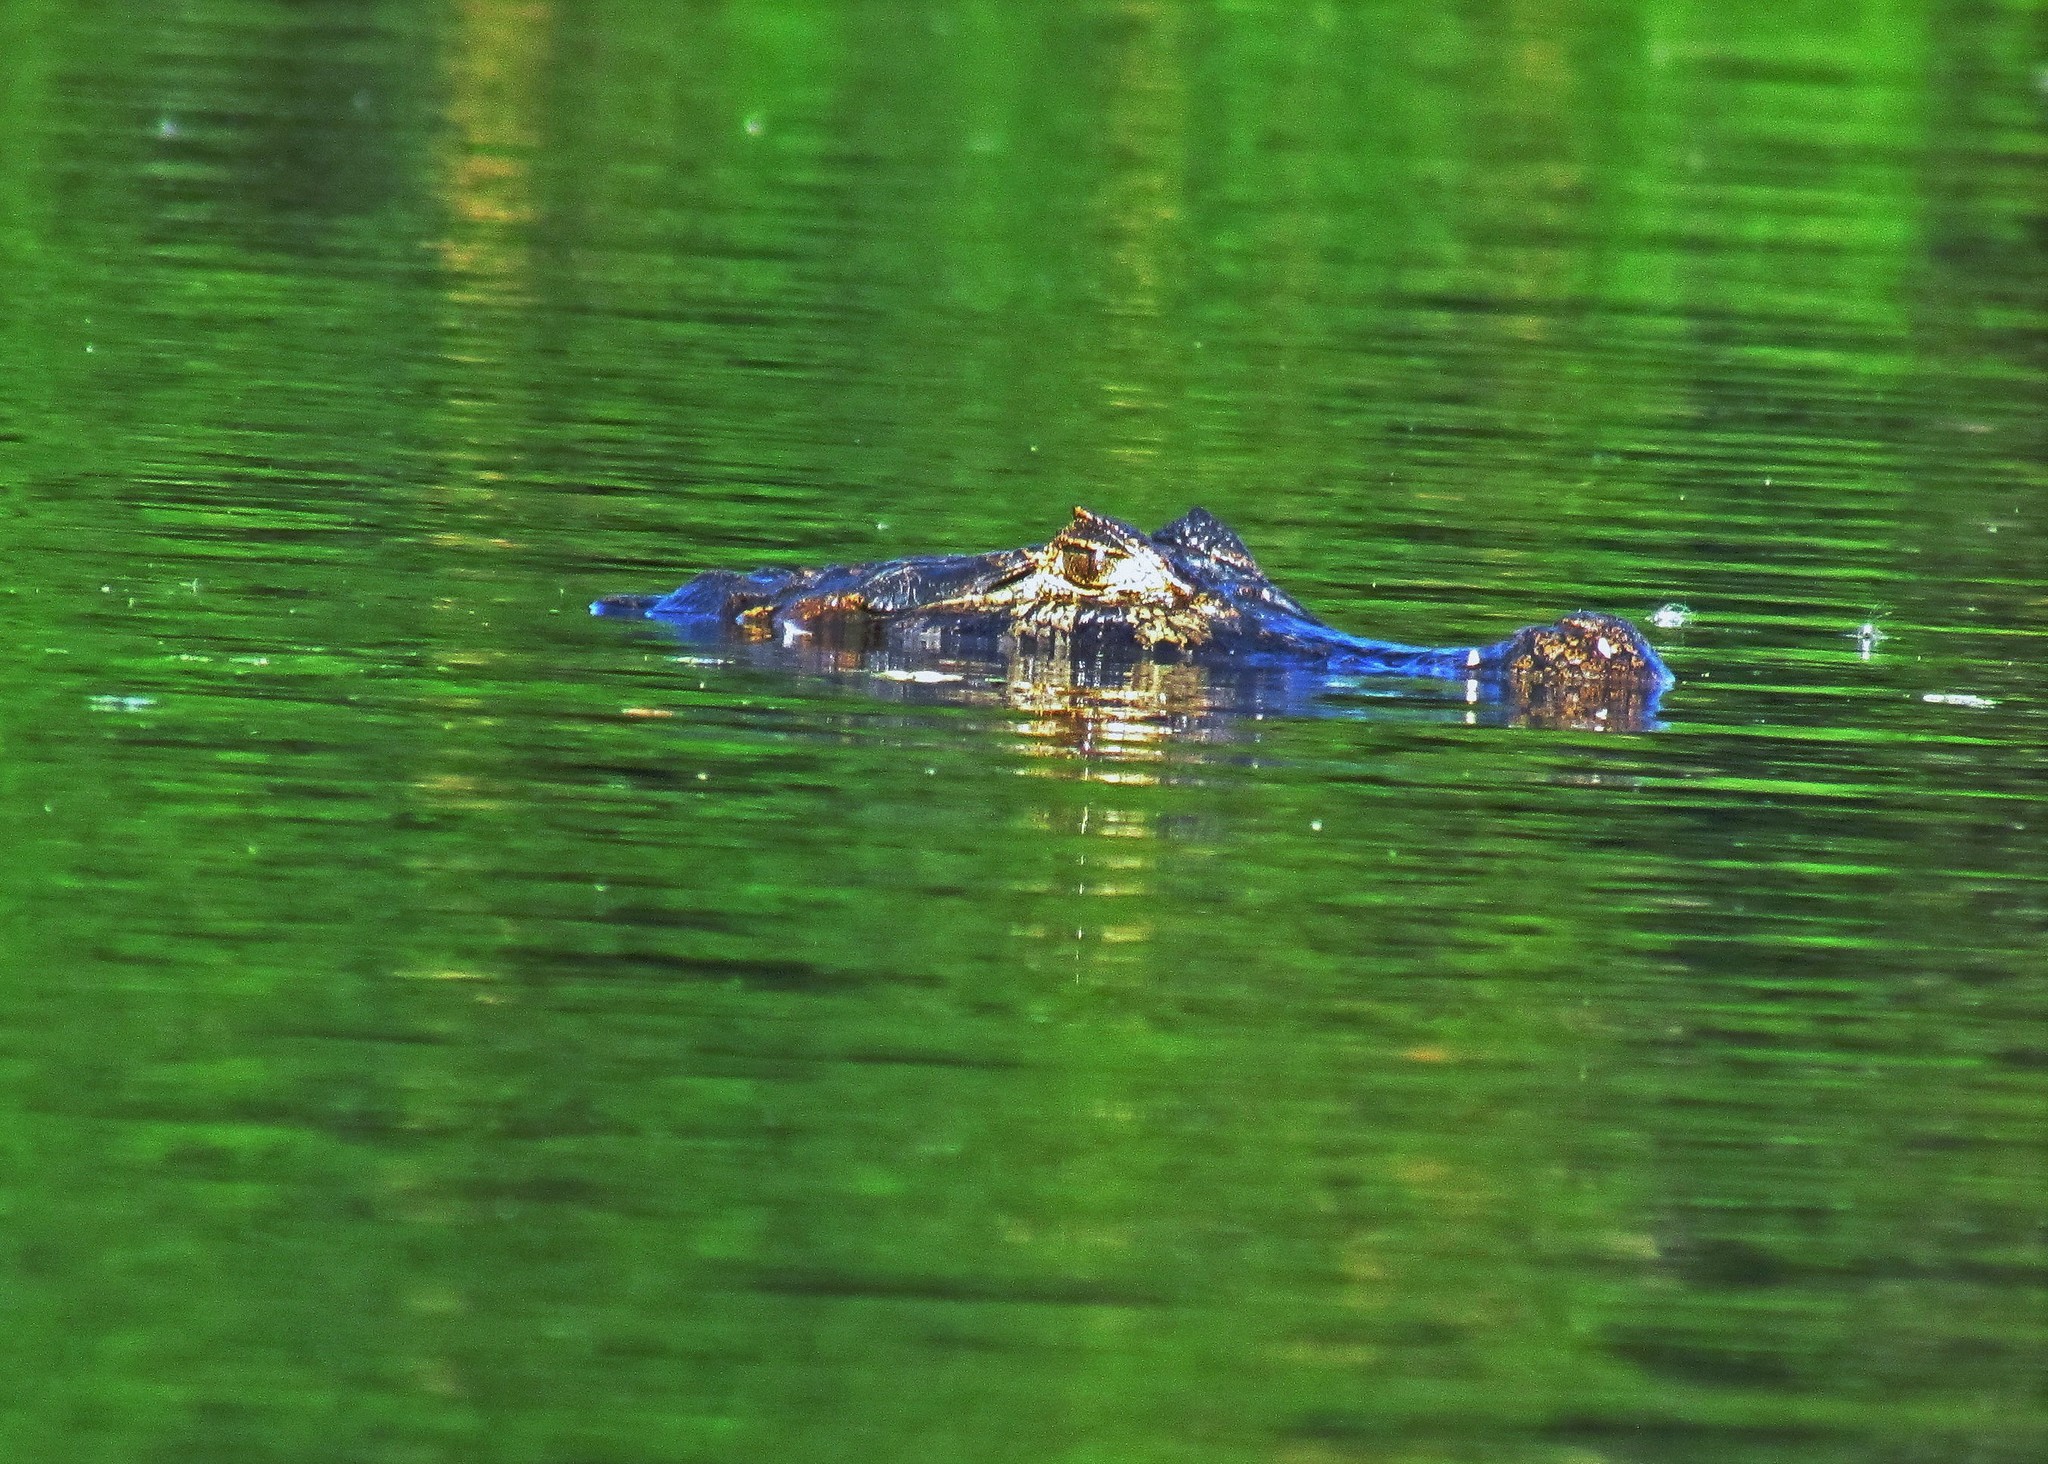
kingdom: Animalia
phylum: Chordata
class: Crocodylia
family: Alligatoridae
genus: Caiman
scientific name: Caiman yacare
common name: Yacare caiman
